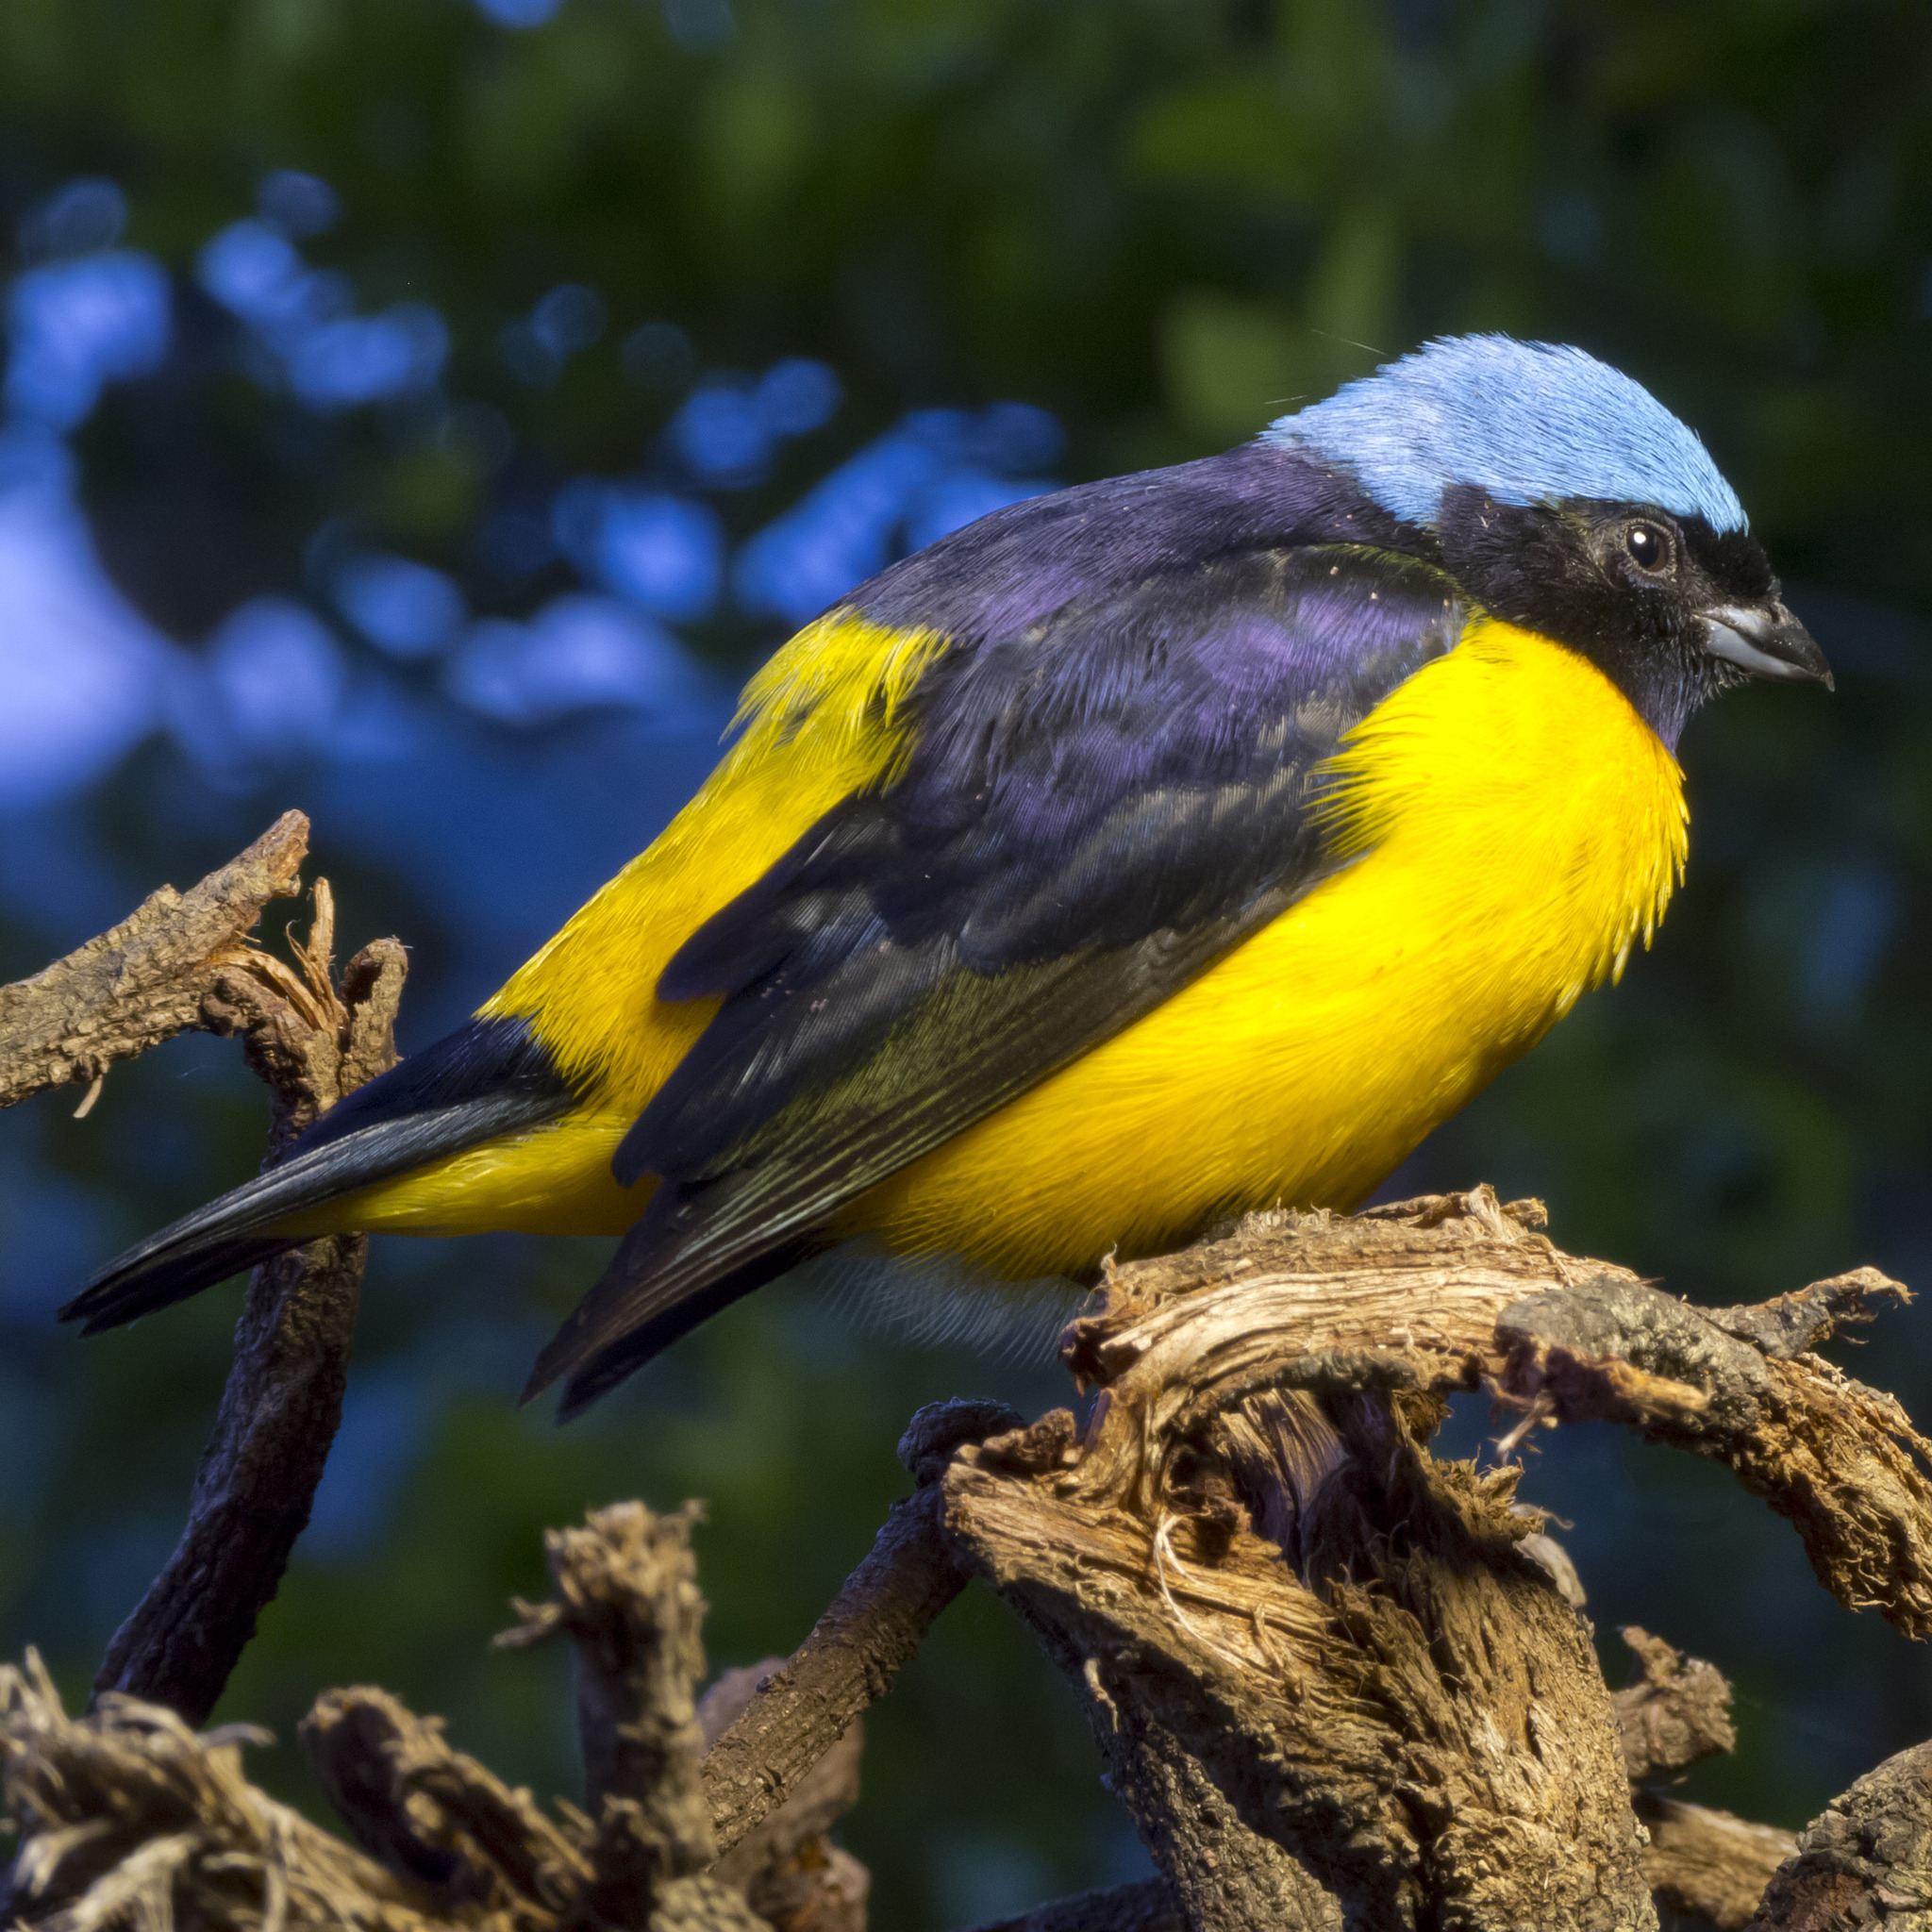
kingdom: Animalia
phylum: Chordata
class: Aves
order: Passeriformes
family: Fringillidae
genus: Euphonia
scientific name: Euphonia cyanocephala
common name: Golden-rumped euphonia
